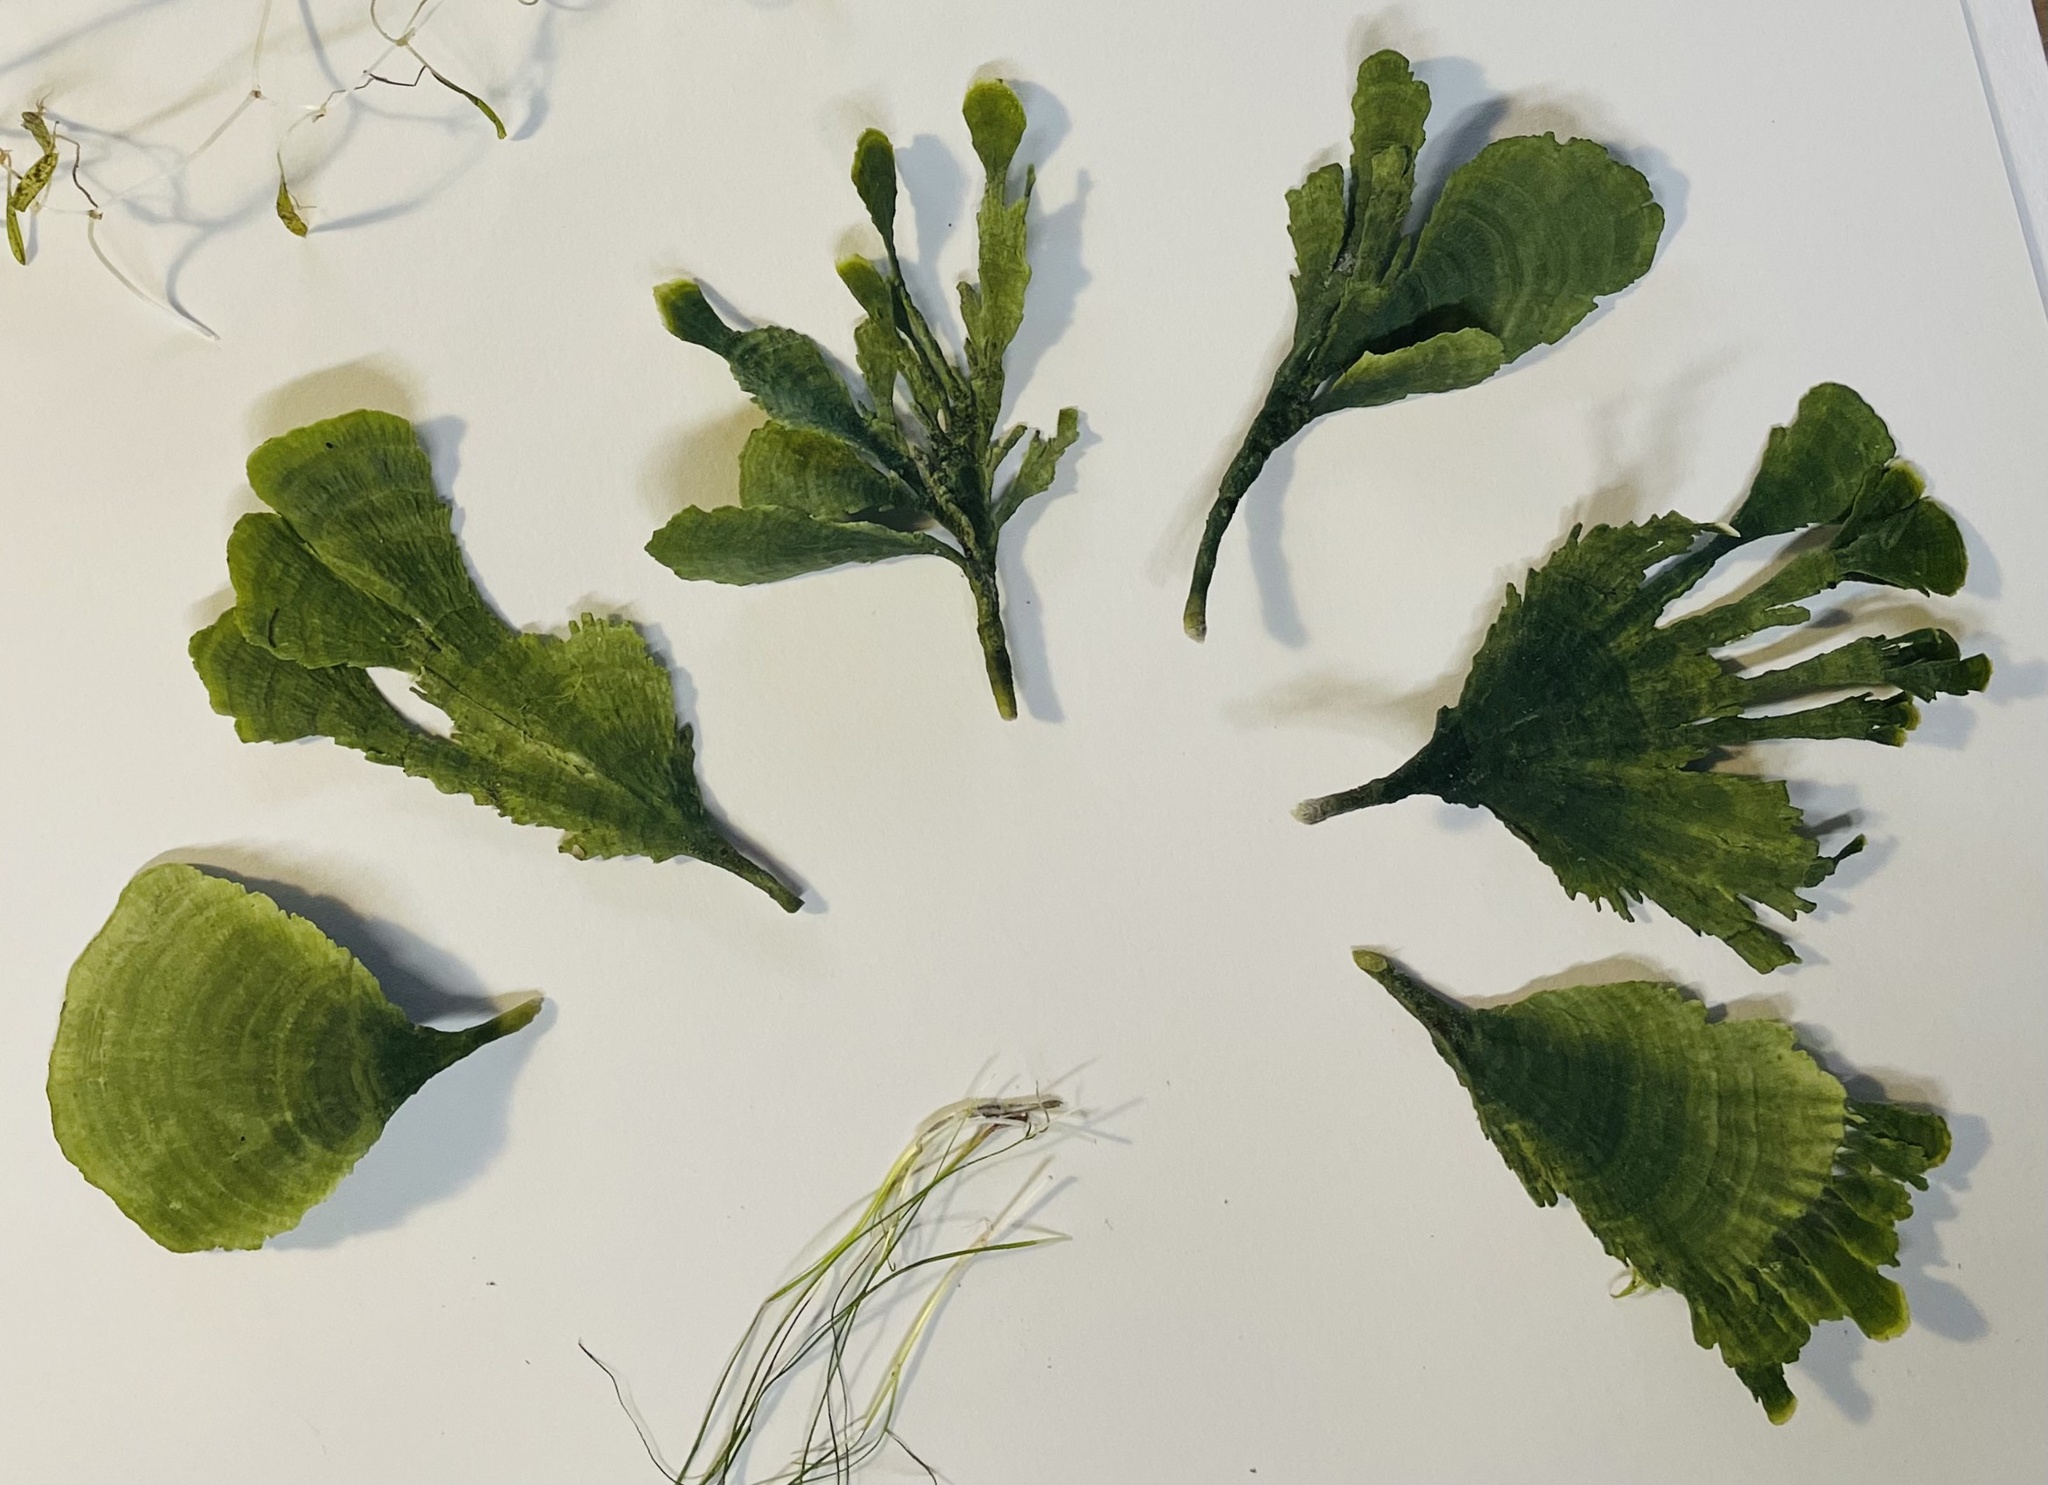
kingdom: Plantae
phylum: Chlorophyta
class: Ulvophyceae
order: Bryopsidales
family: Udoteaceae
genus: Udotea
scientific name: Udotea flabellum
